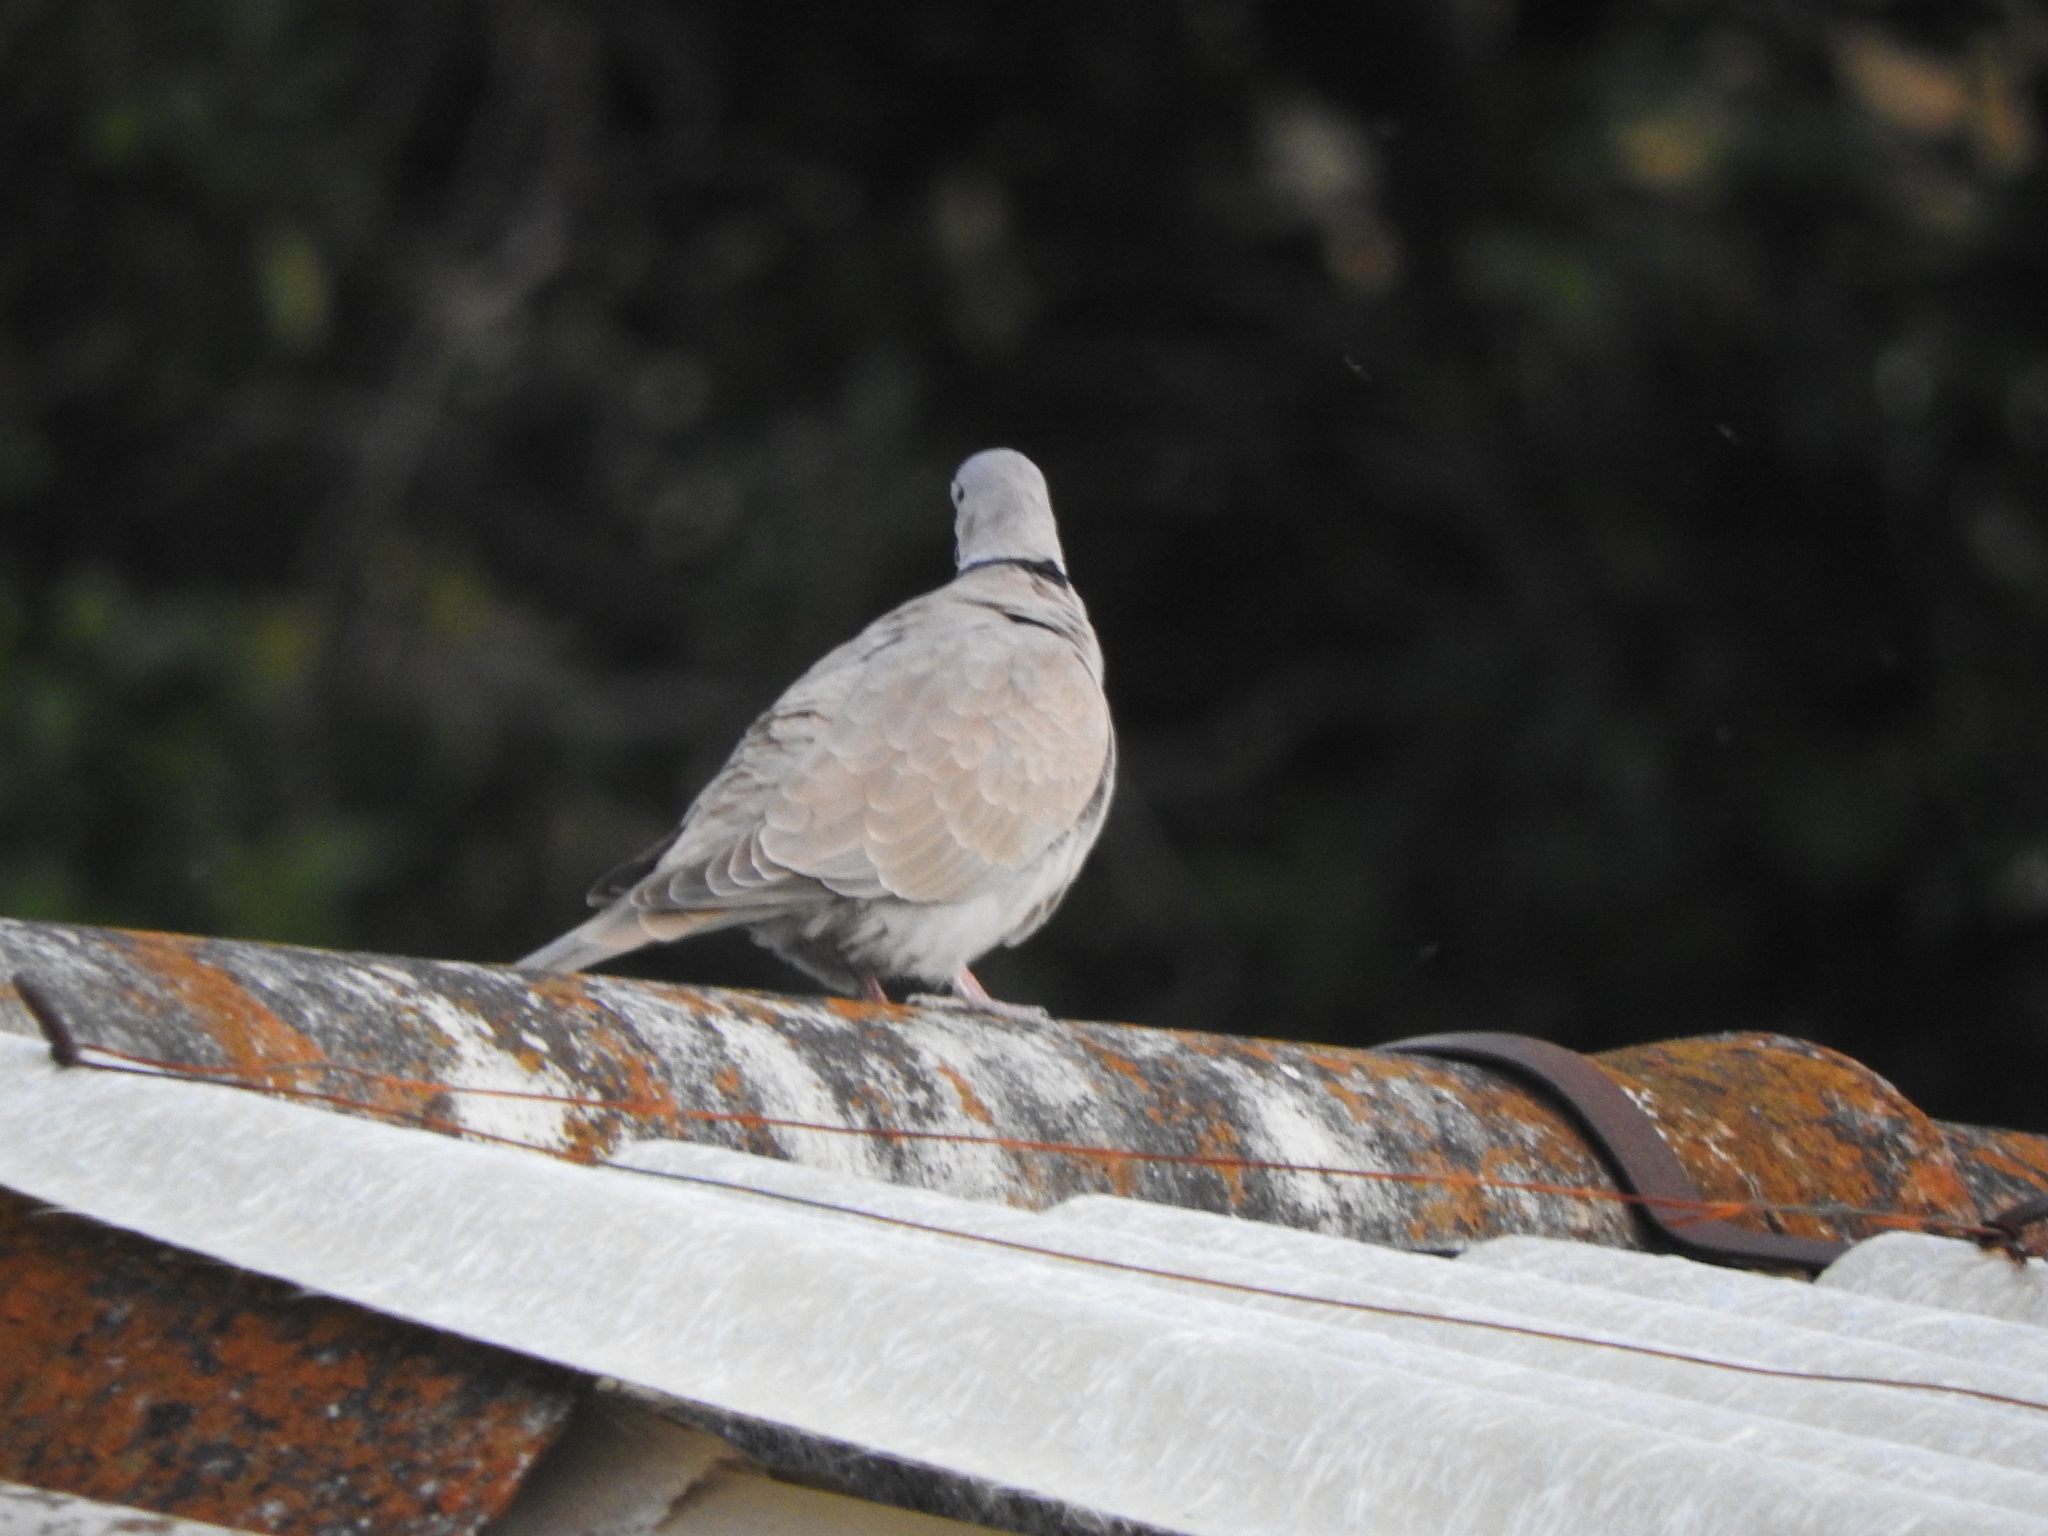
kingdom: Animalia
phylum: Chordata
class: Aves
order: Columbiformes
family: Columbidae
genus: Streptopelia
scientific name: Streptopelia decaocto
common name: Eurasian collared dove
